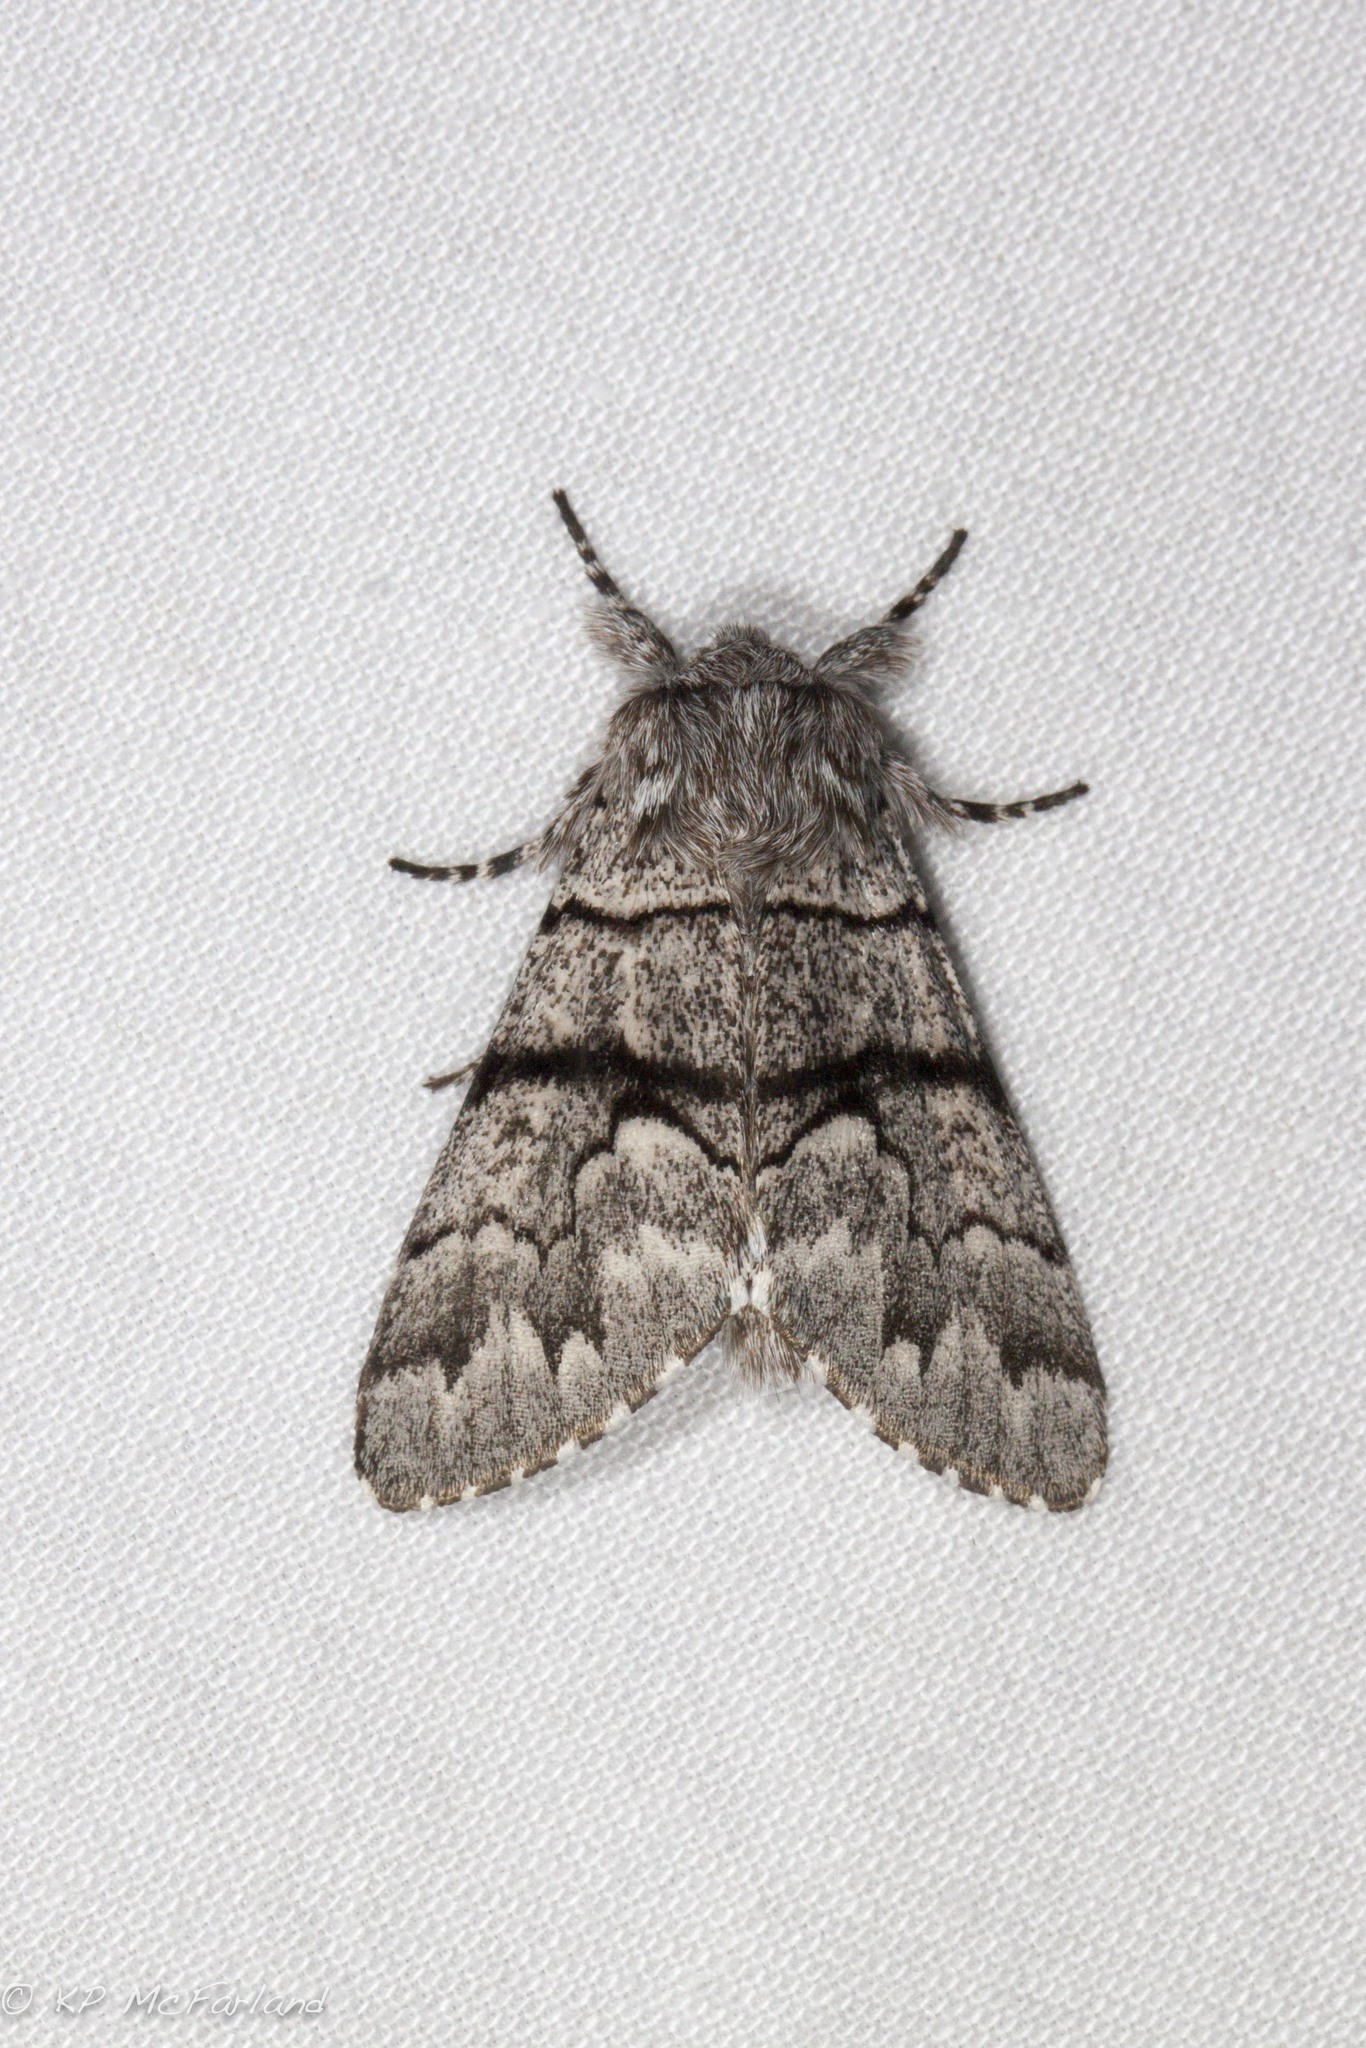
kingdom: Animalia
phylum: Arthropoda
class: Insecta
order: Lepidoptera
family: Noctuidae
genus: Panthea
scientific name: Panthea furcilla
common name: Eastern panthea moth
